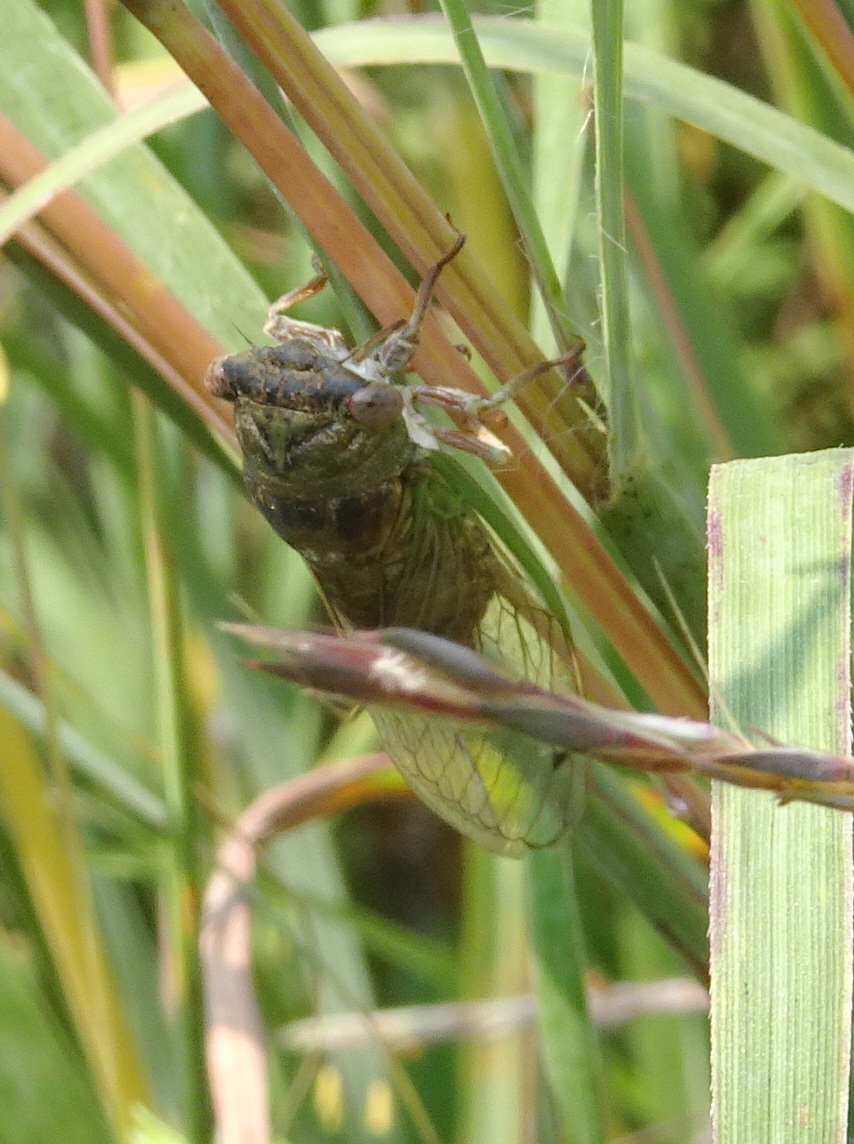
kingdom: Animalia
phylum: Arthropoda
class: Insecta
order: Hemiptera
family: Cicadidae
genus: Neotibicen
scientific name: Neotibicen aurifer
